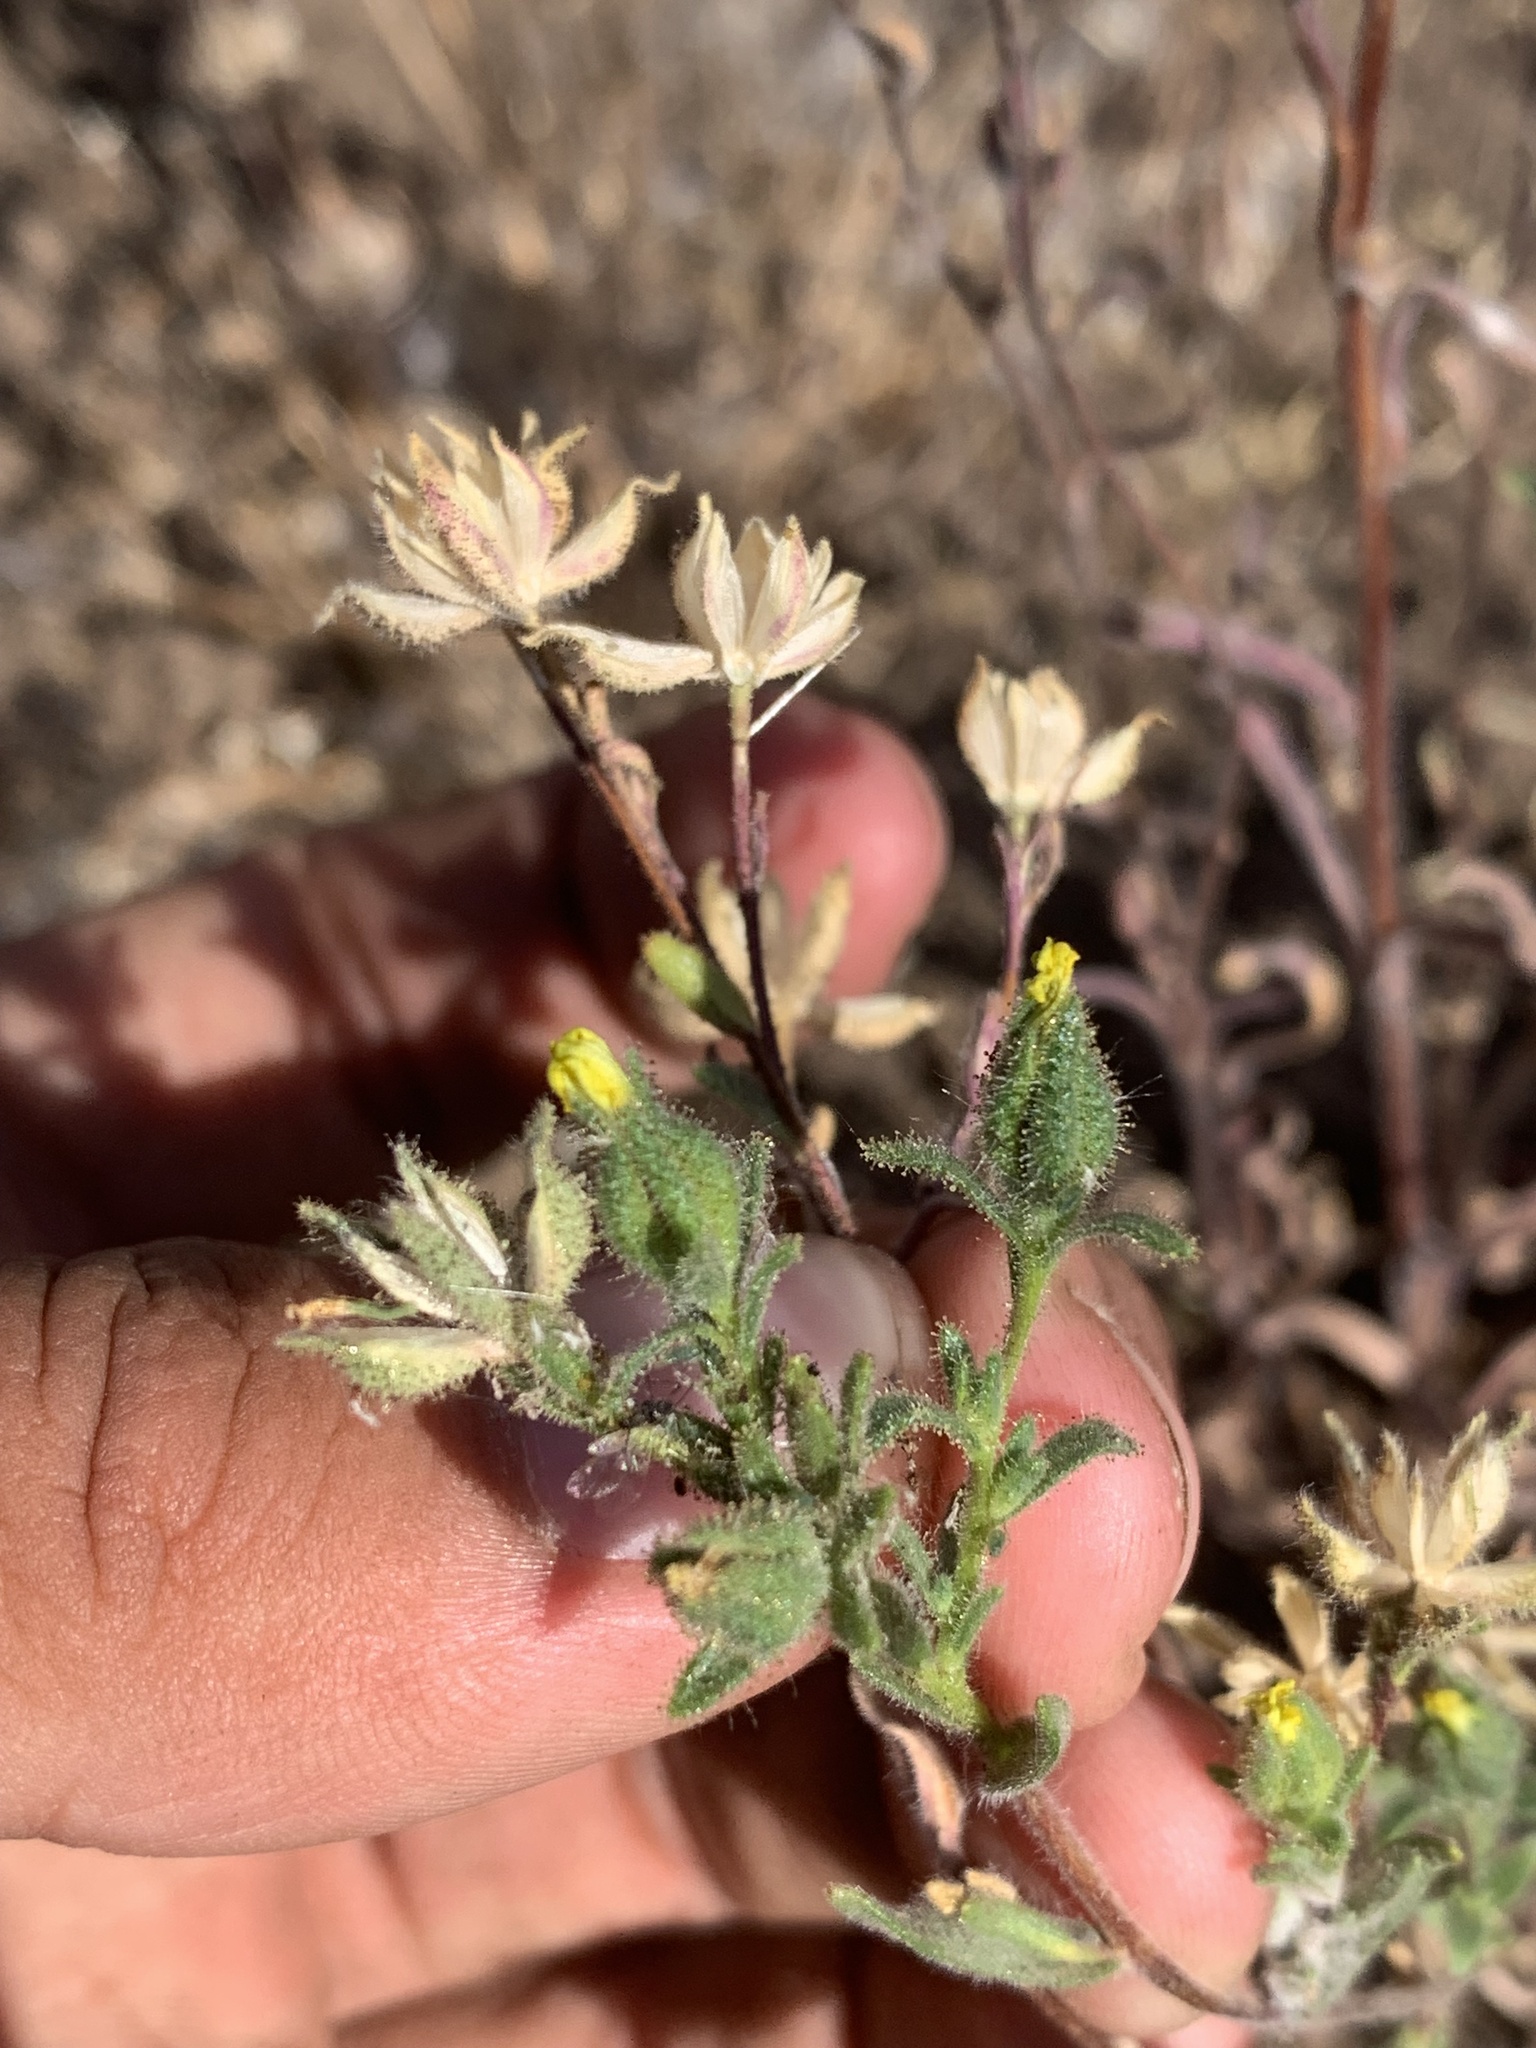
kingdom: Plantae
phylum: Tracheophyta
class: Magnoliopsida
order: Asterales
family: Asteraceae
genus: Madia
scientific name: Madia gracilis
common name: Grassy tarweed
